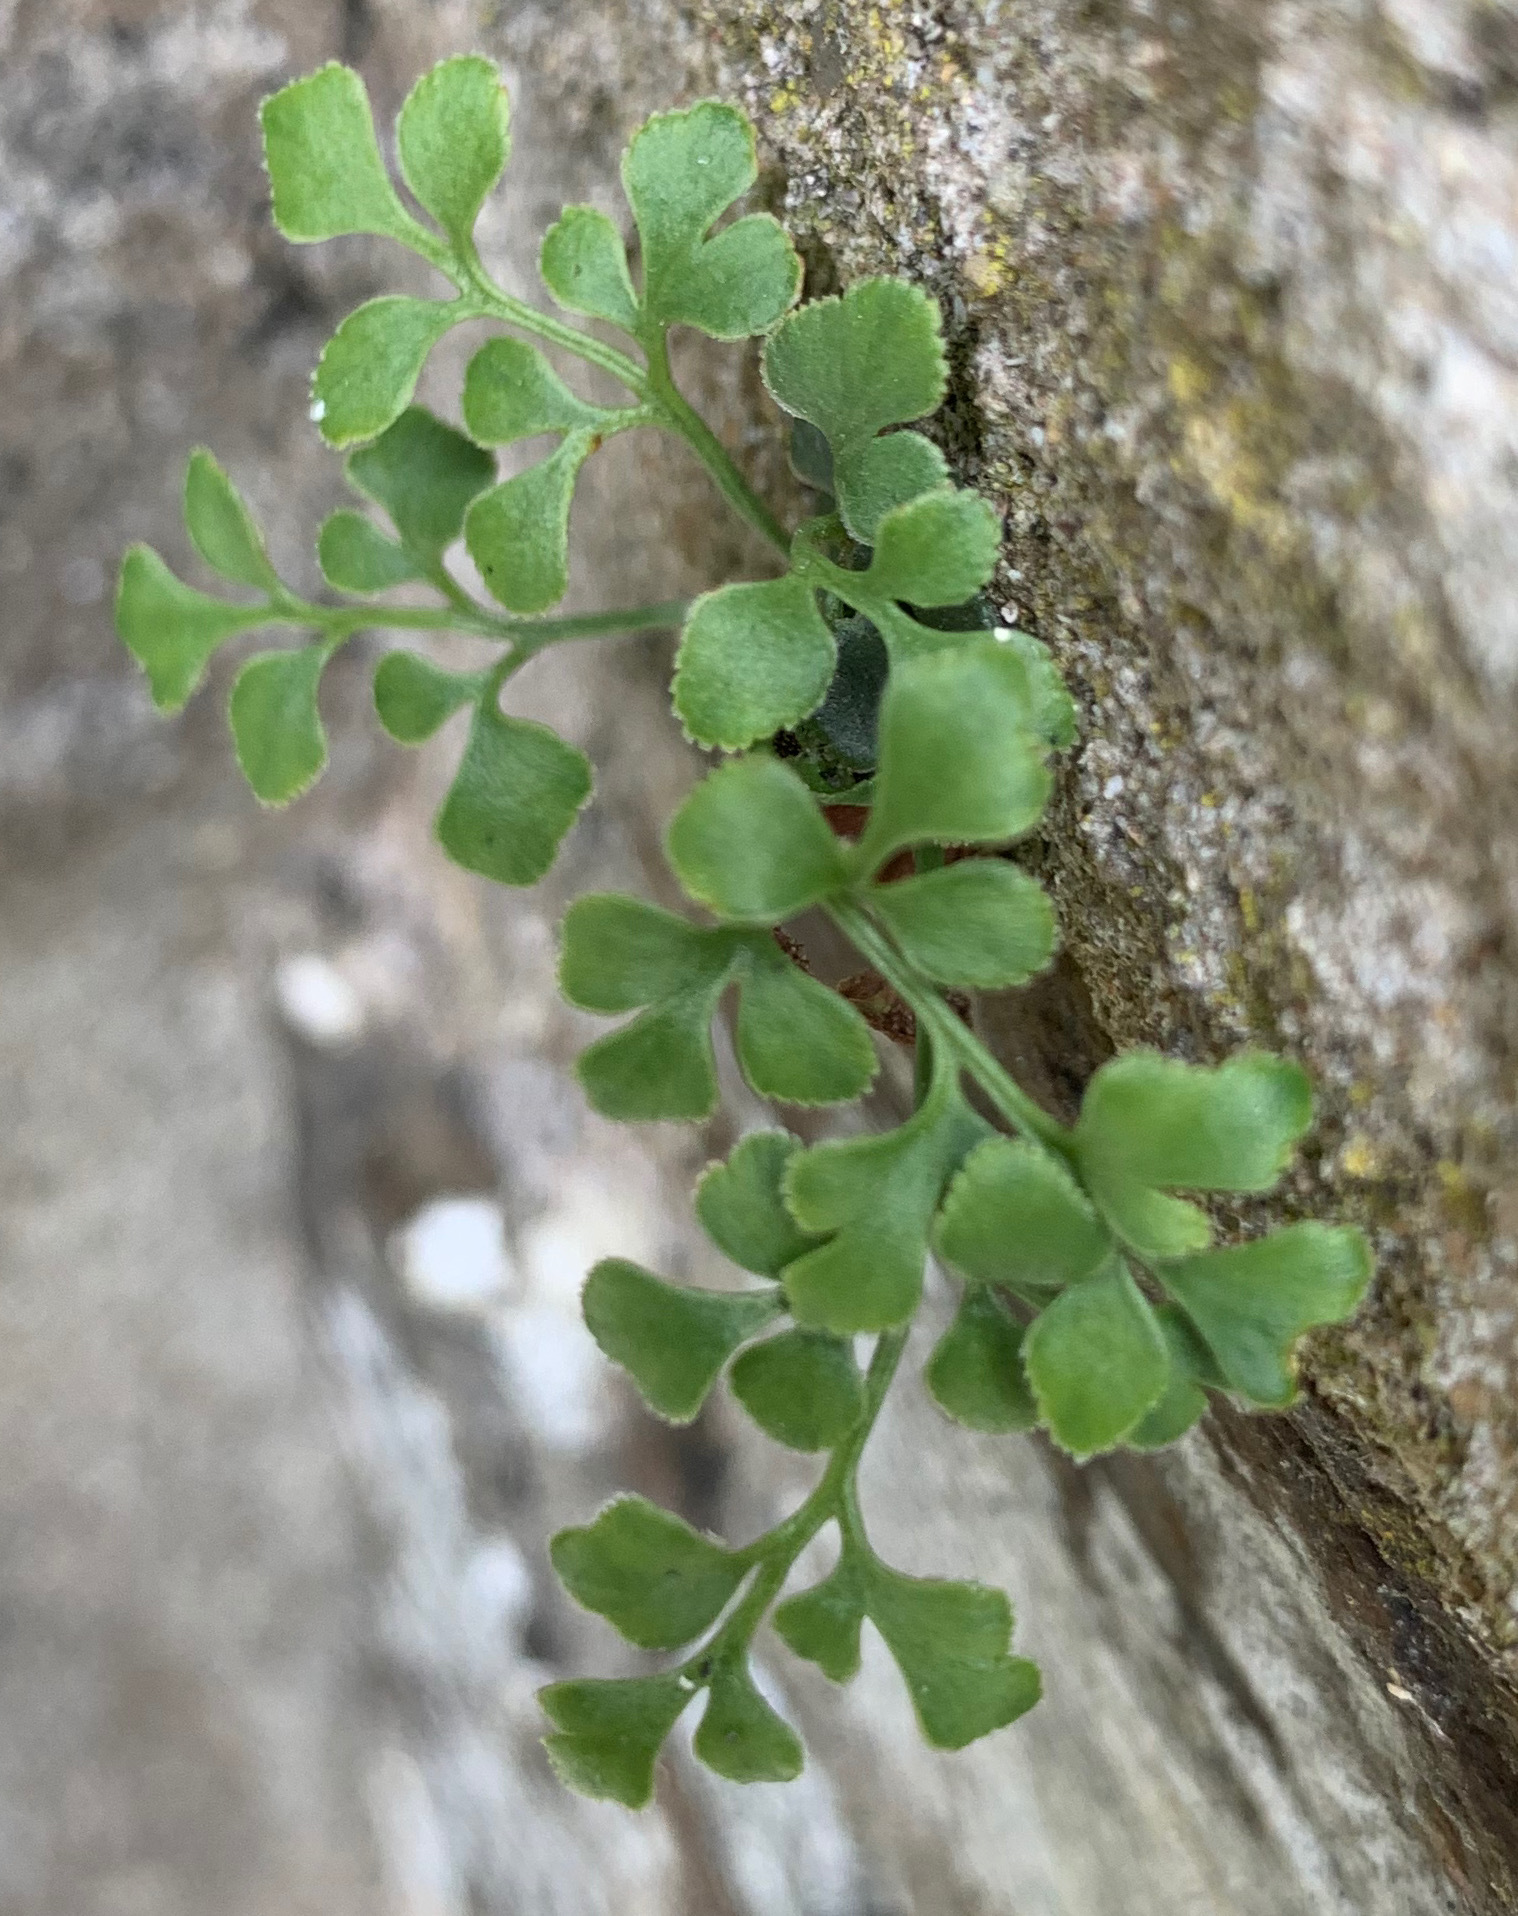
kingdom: Plantae
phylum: Tracheophyta
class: Polypodiopsida
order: Polypodiales
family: Aspleniaceae
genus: Asplenium
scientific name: Asplenium ruta-muraria
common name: Wall-rue
